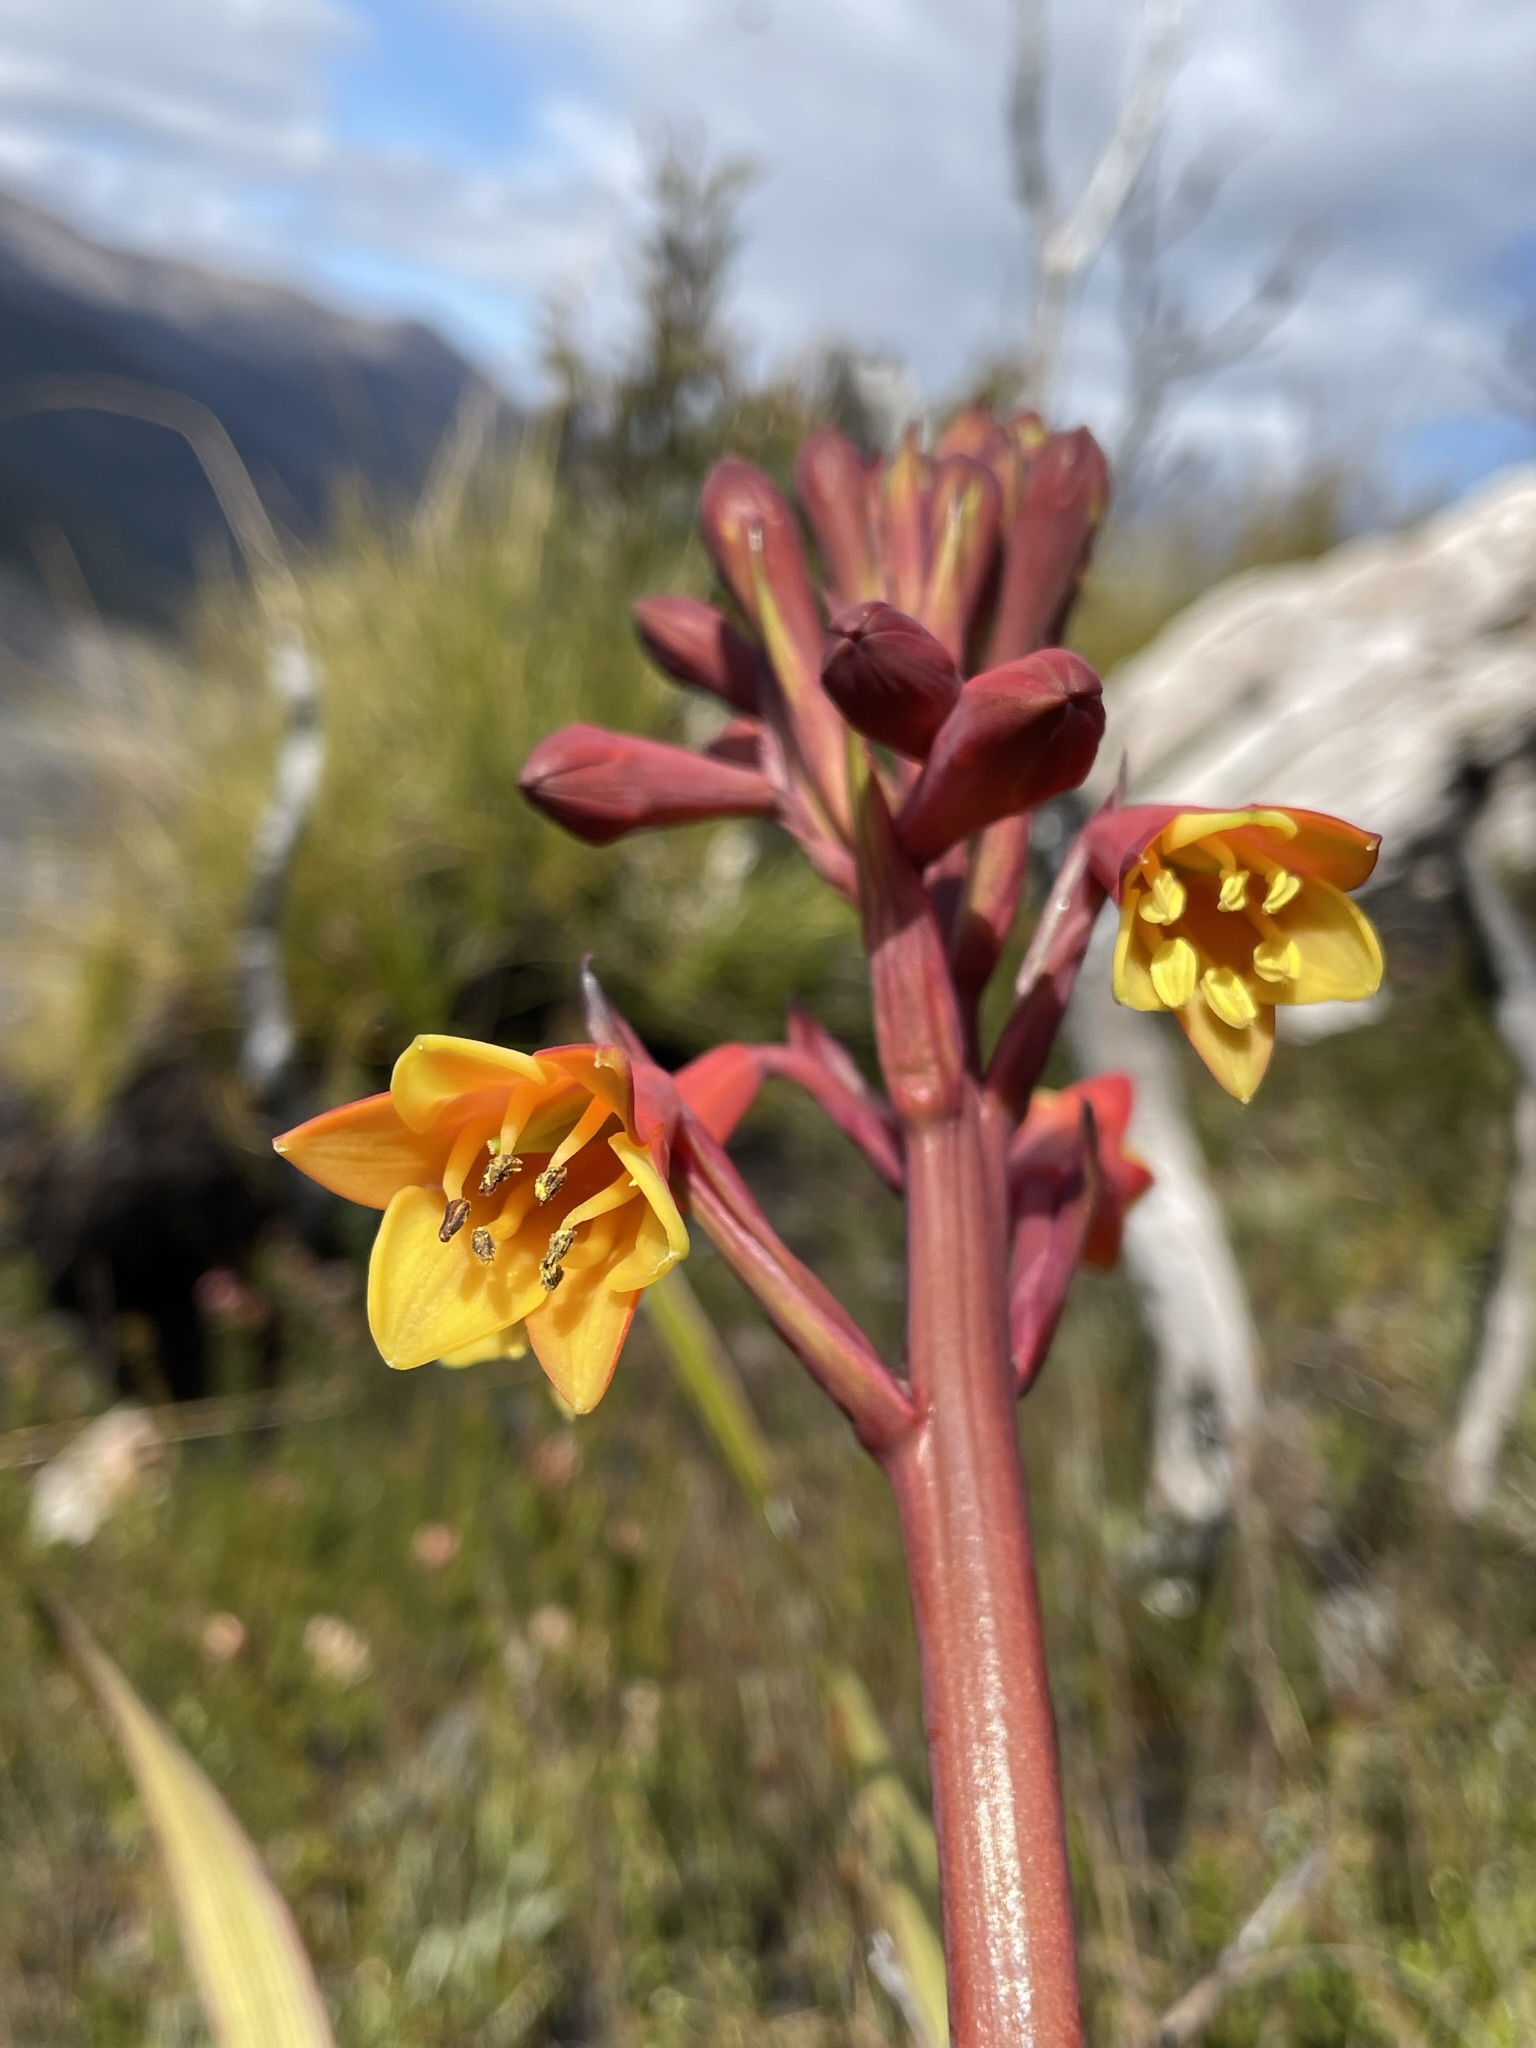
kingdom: Plantae
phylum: Tracheophyta
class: Liliopsida
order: Asparagales
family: Blandfordiaceae
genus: Blandfordia
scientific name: Blandfordia punicea
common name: Tasmanian christmas-bell
